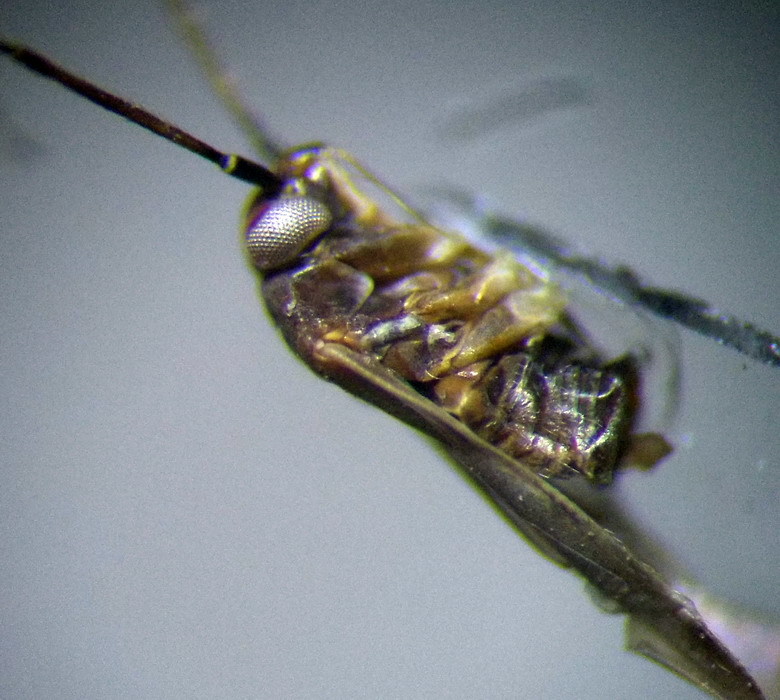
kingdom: Animalia
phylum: Arthropoda
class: Insecta
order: Hemiptera
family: Miridae
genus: Europiella
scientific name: Europiella artemisiae
